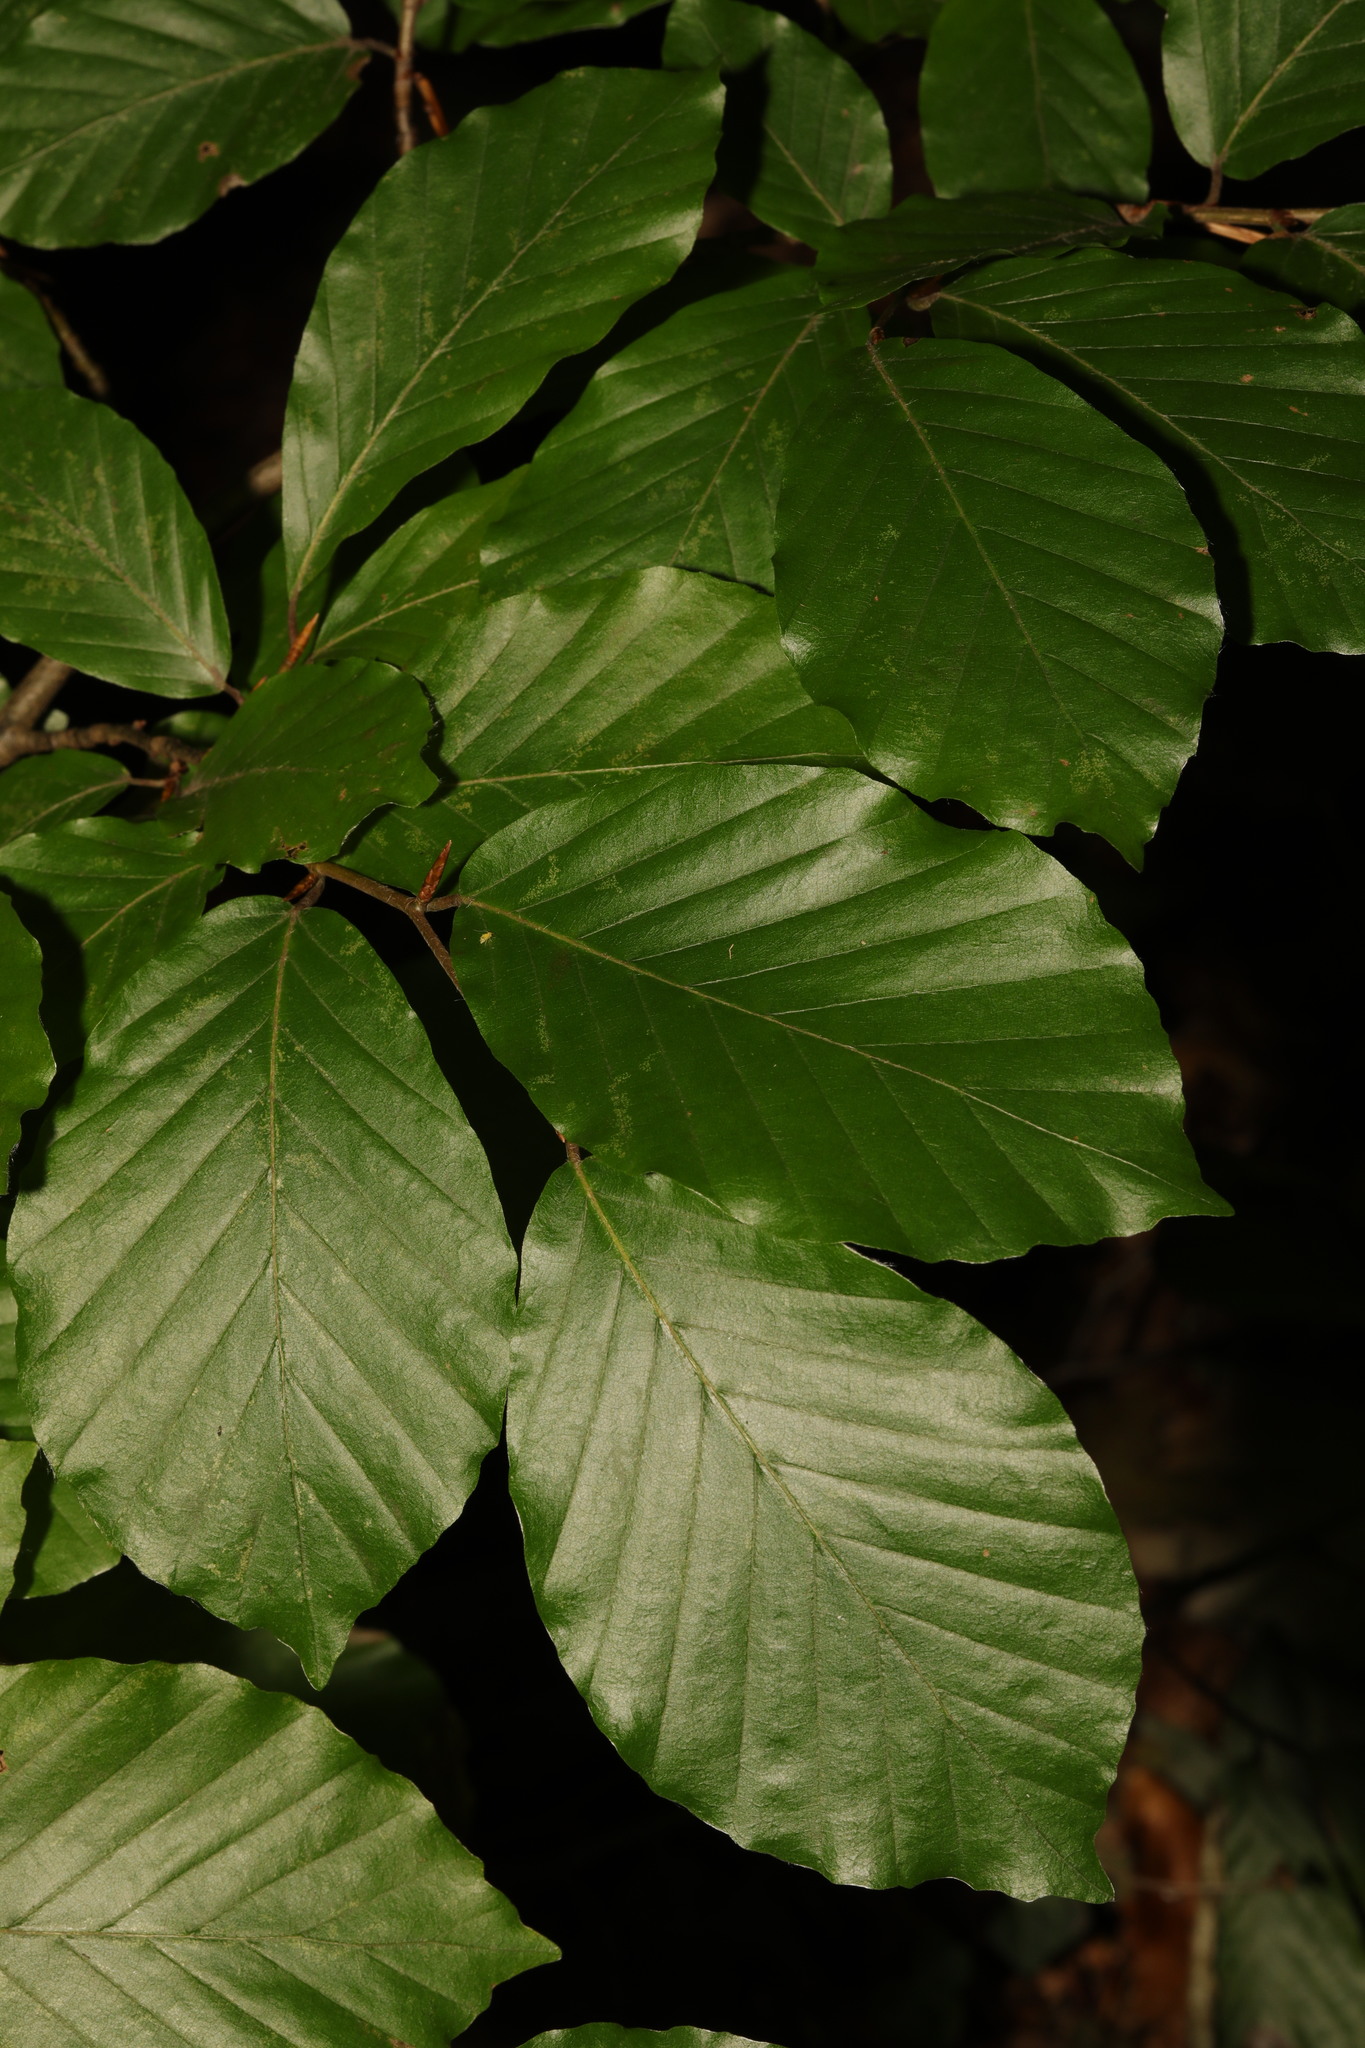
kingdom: Plantae
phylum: Tracheophyta
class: Magnoliopsida
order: Fagales
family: Fagaceae
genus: Fagus
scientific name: Fagus sylvatica
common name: Beech
